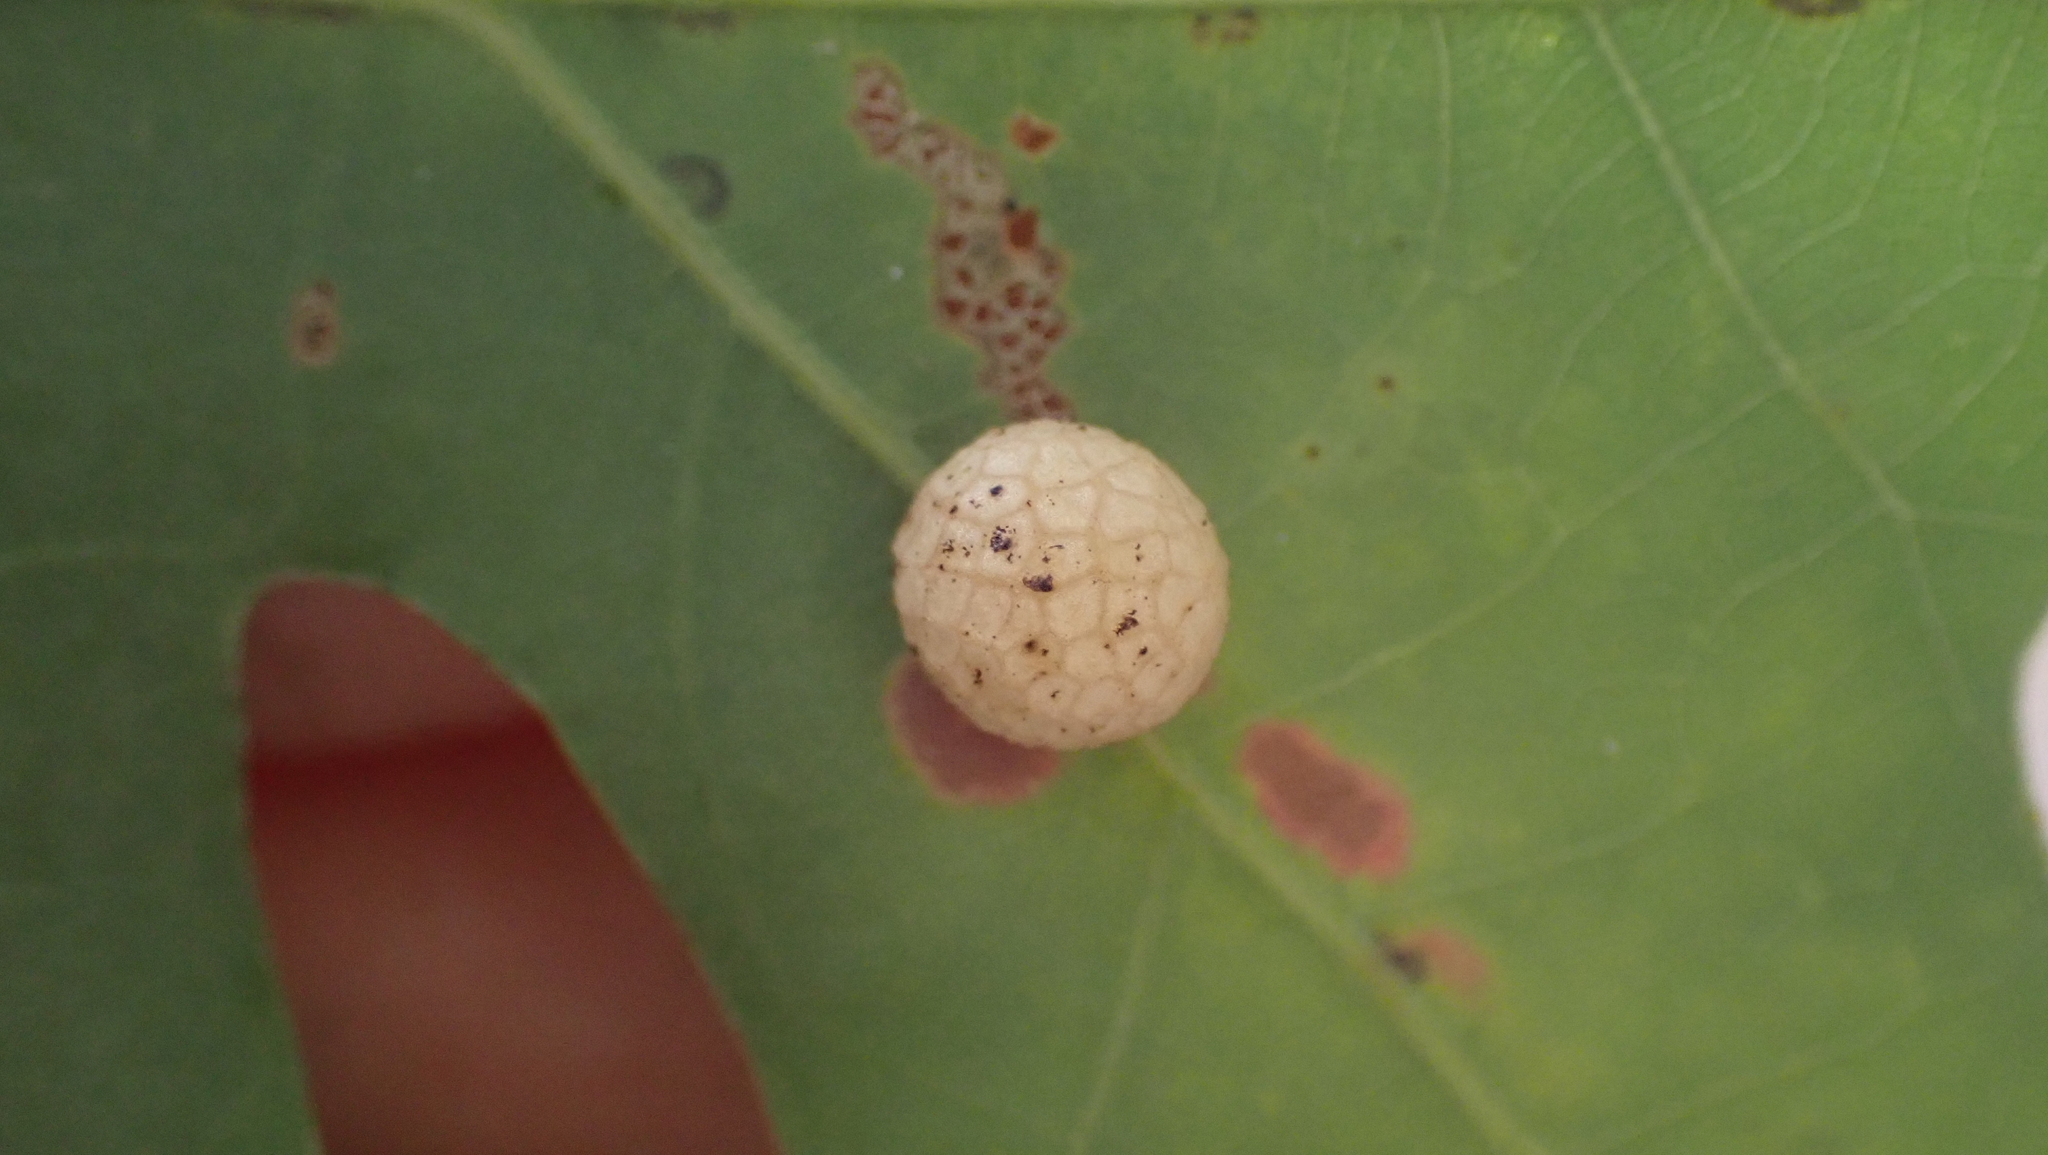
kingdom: Animalia
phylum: Arthropoda
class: Insecta
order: Hymenoptera
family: Cynipidae
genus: Acraspis
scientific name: Acraspis
